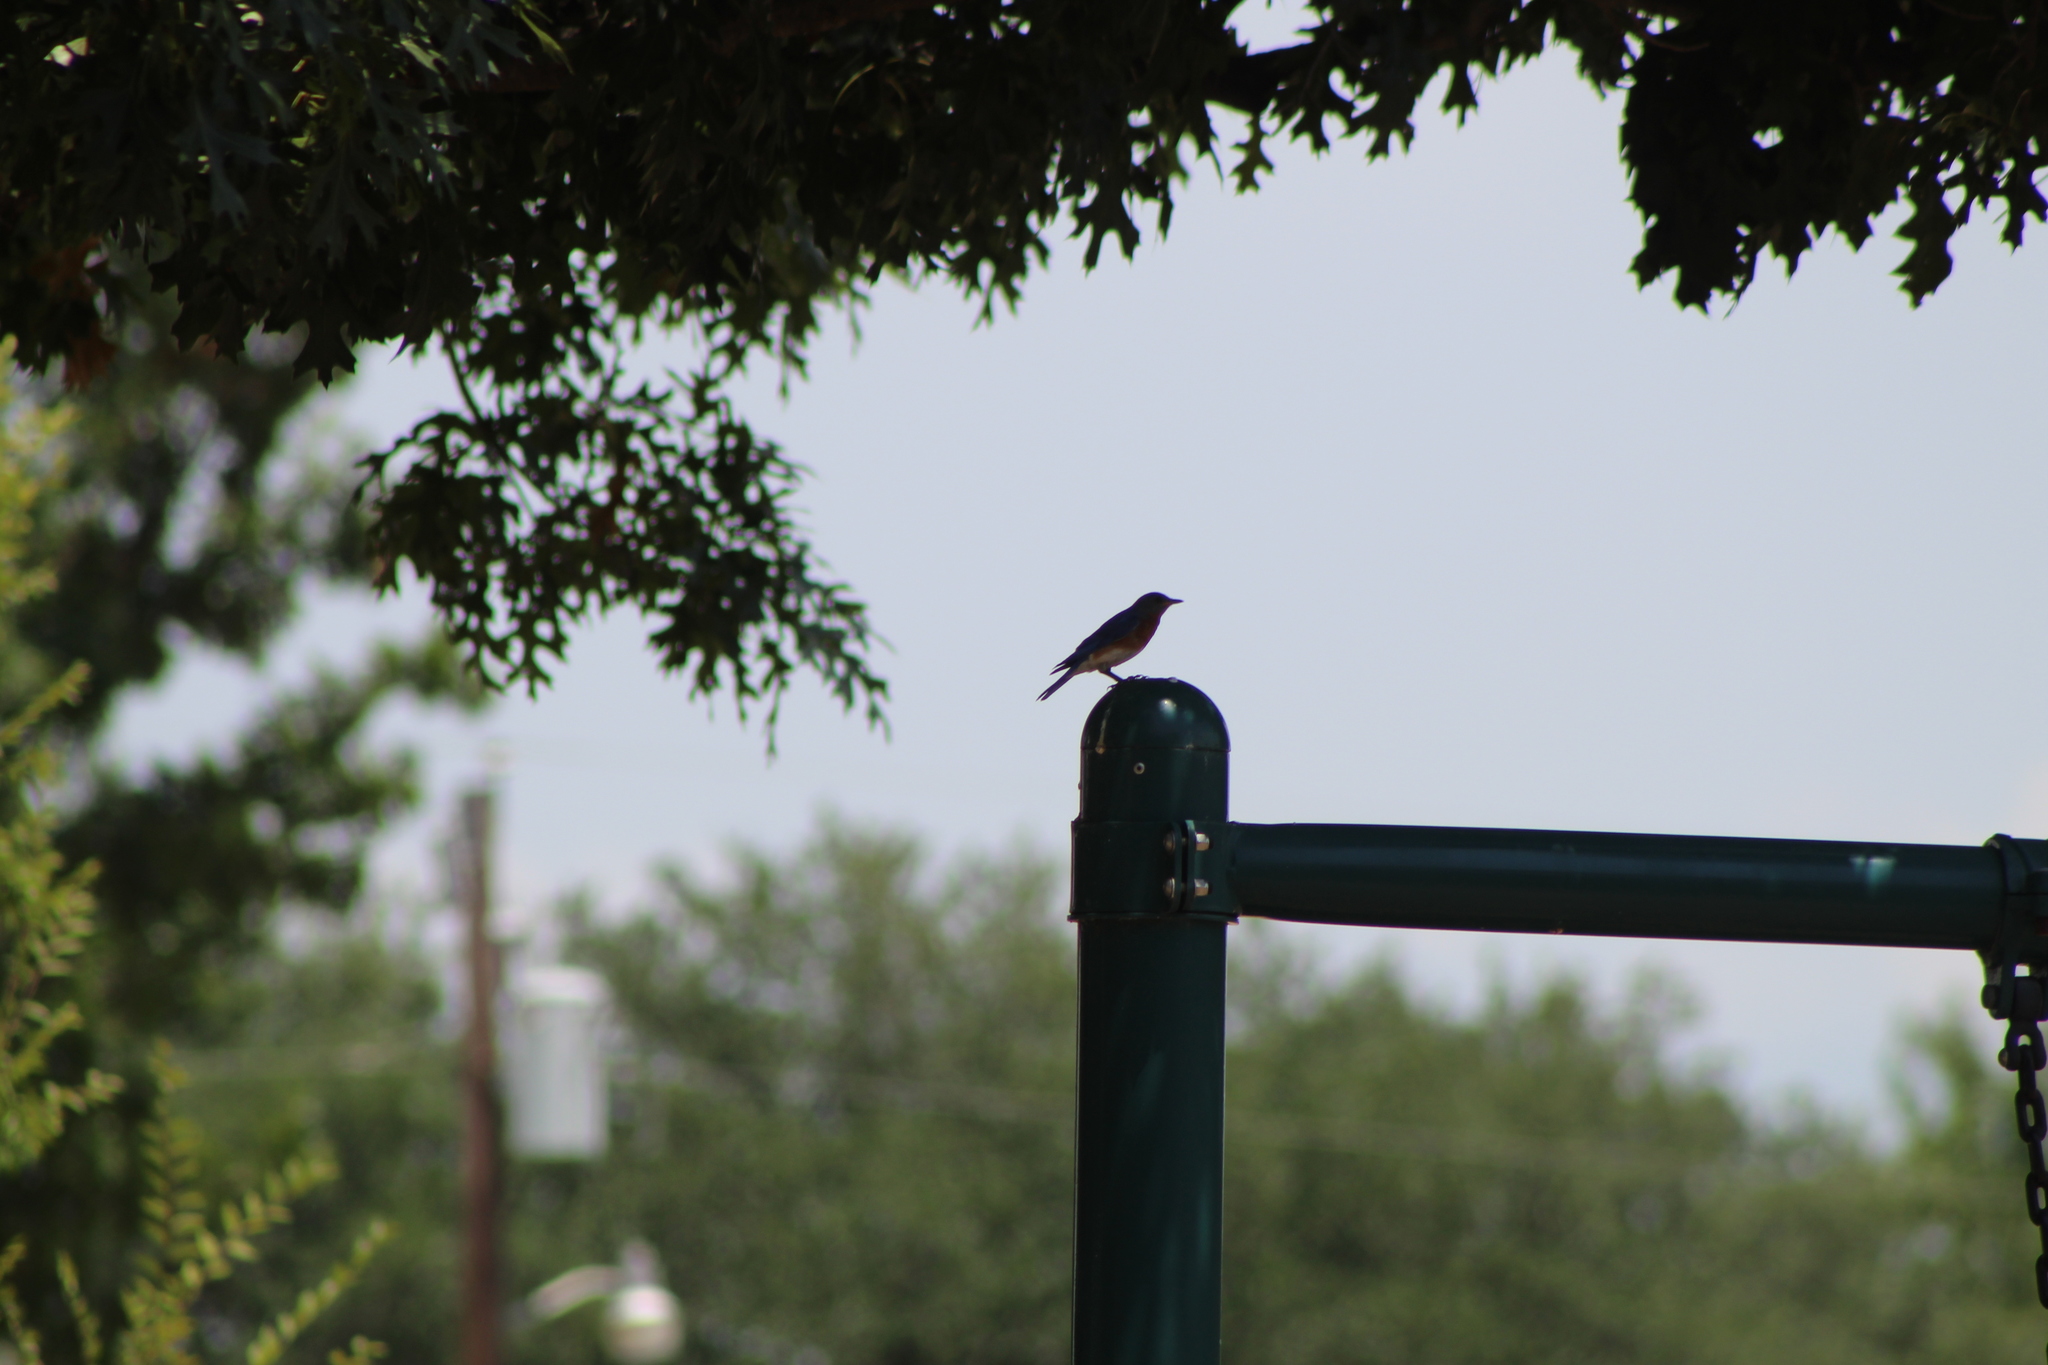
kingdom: Animalia
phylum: Chordata
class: Aves
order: Passeriformes
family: Turdidae
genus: Sialia
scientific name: Sialia sialis
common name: Eastern bluebird
